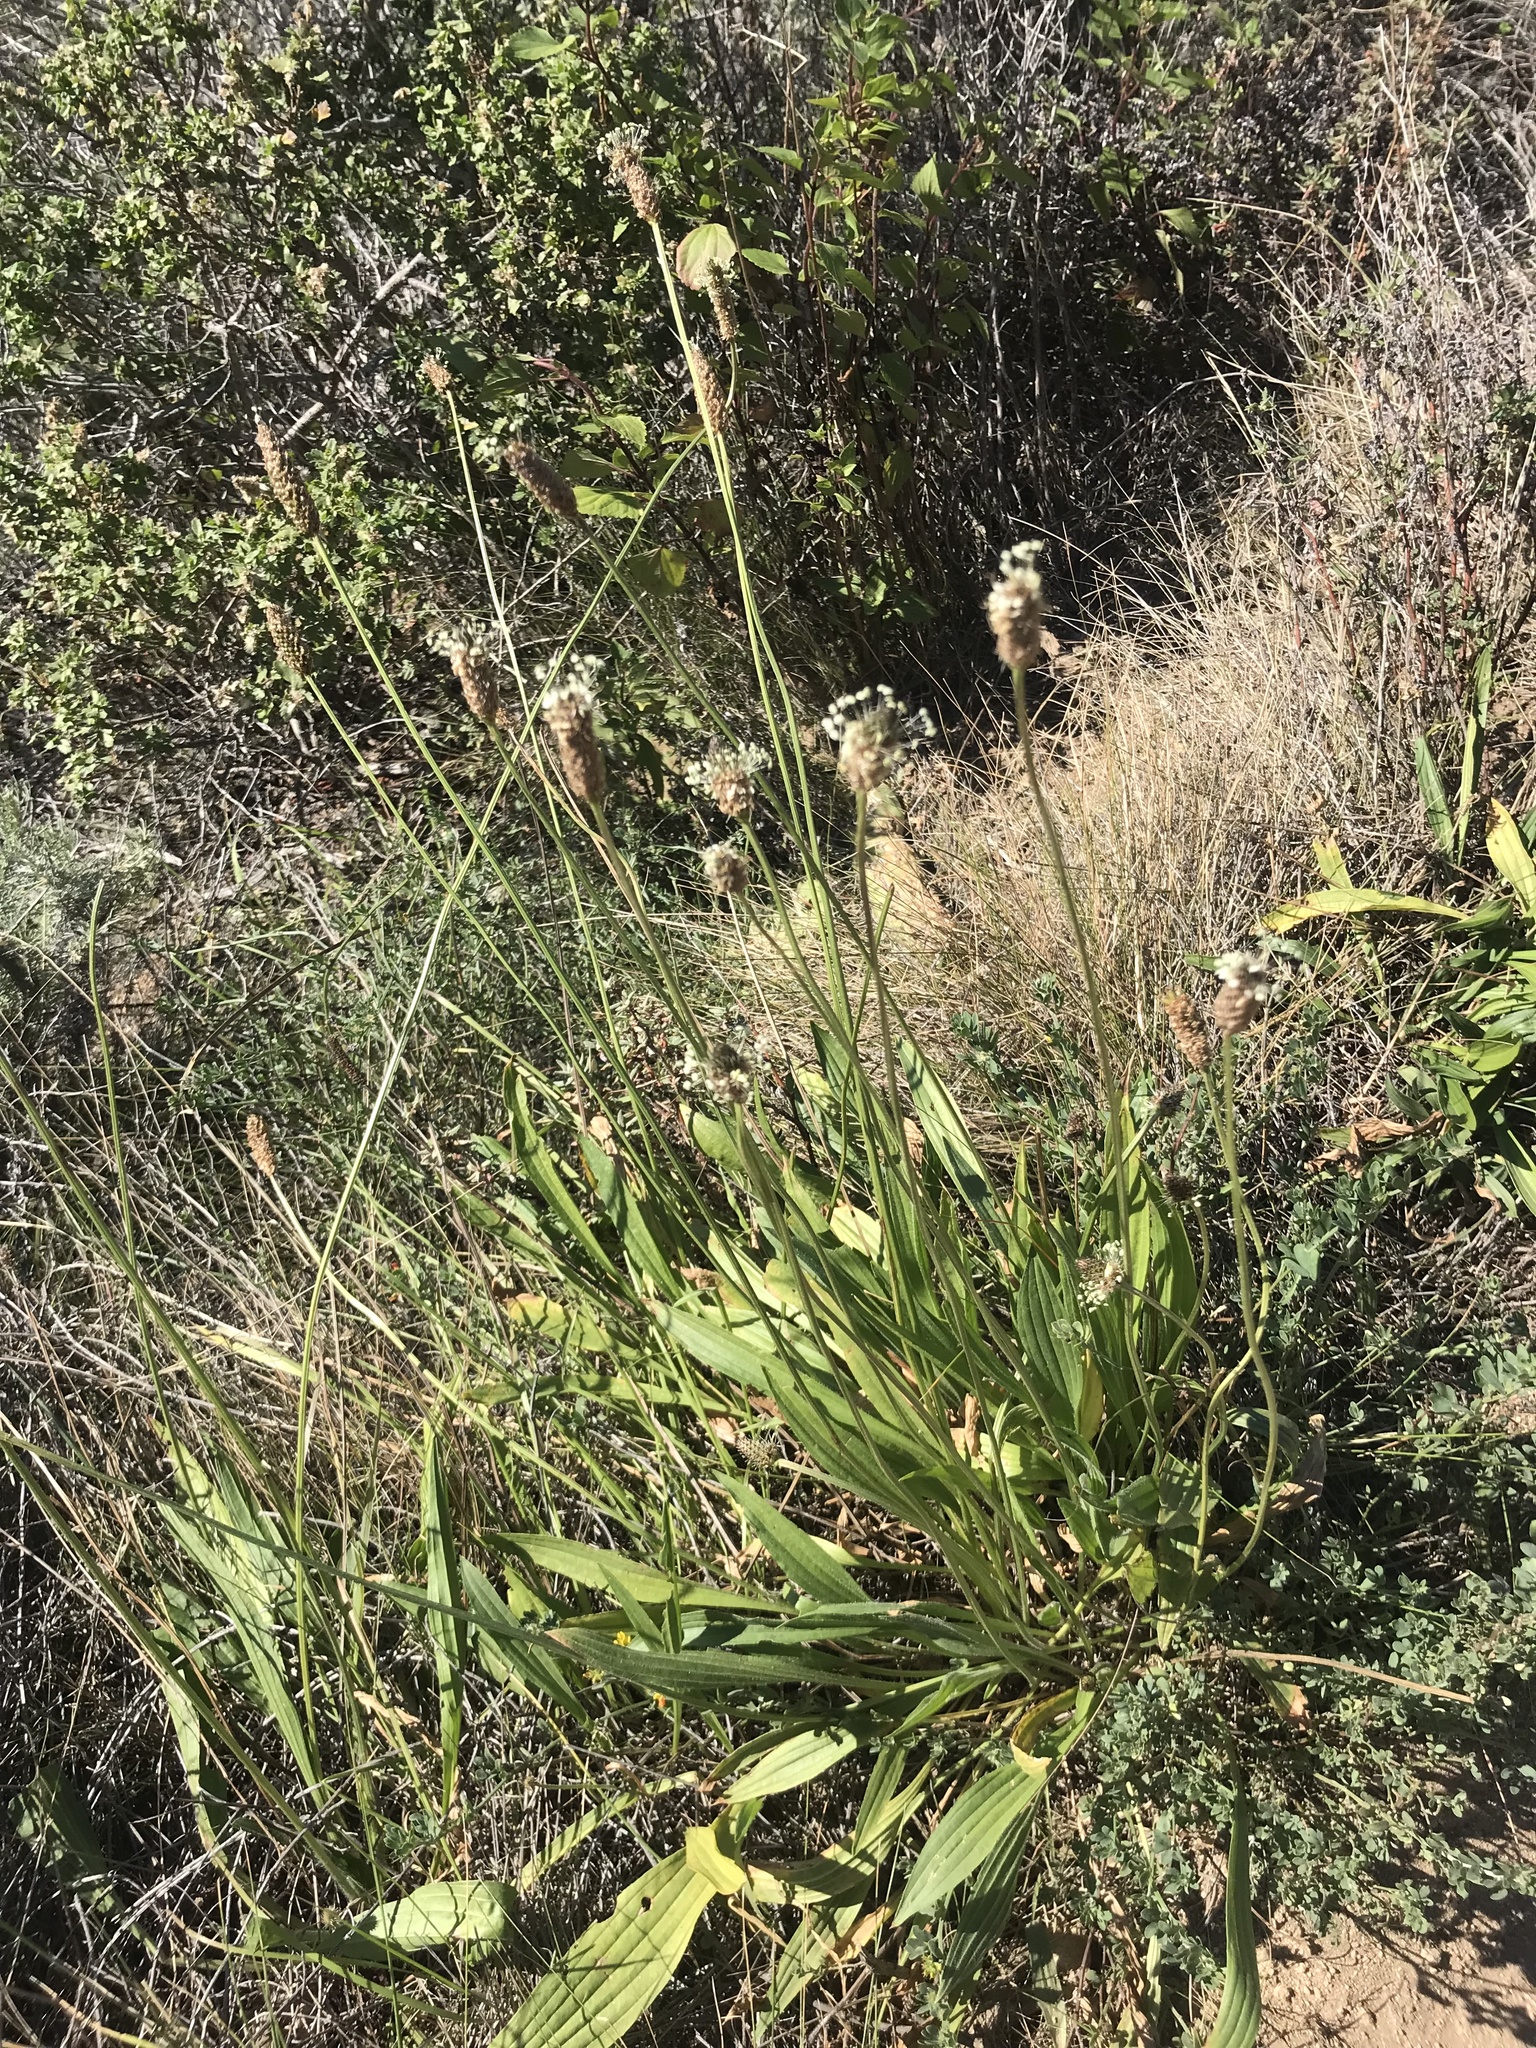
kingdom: Plantae
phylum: Tracheophyta
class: Magnoliopsida
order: Lamiales
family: Plantaginaceae
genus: Plantago
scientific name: Plantago lanceolata
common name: Ribwort plantain
